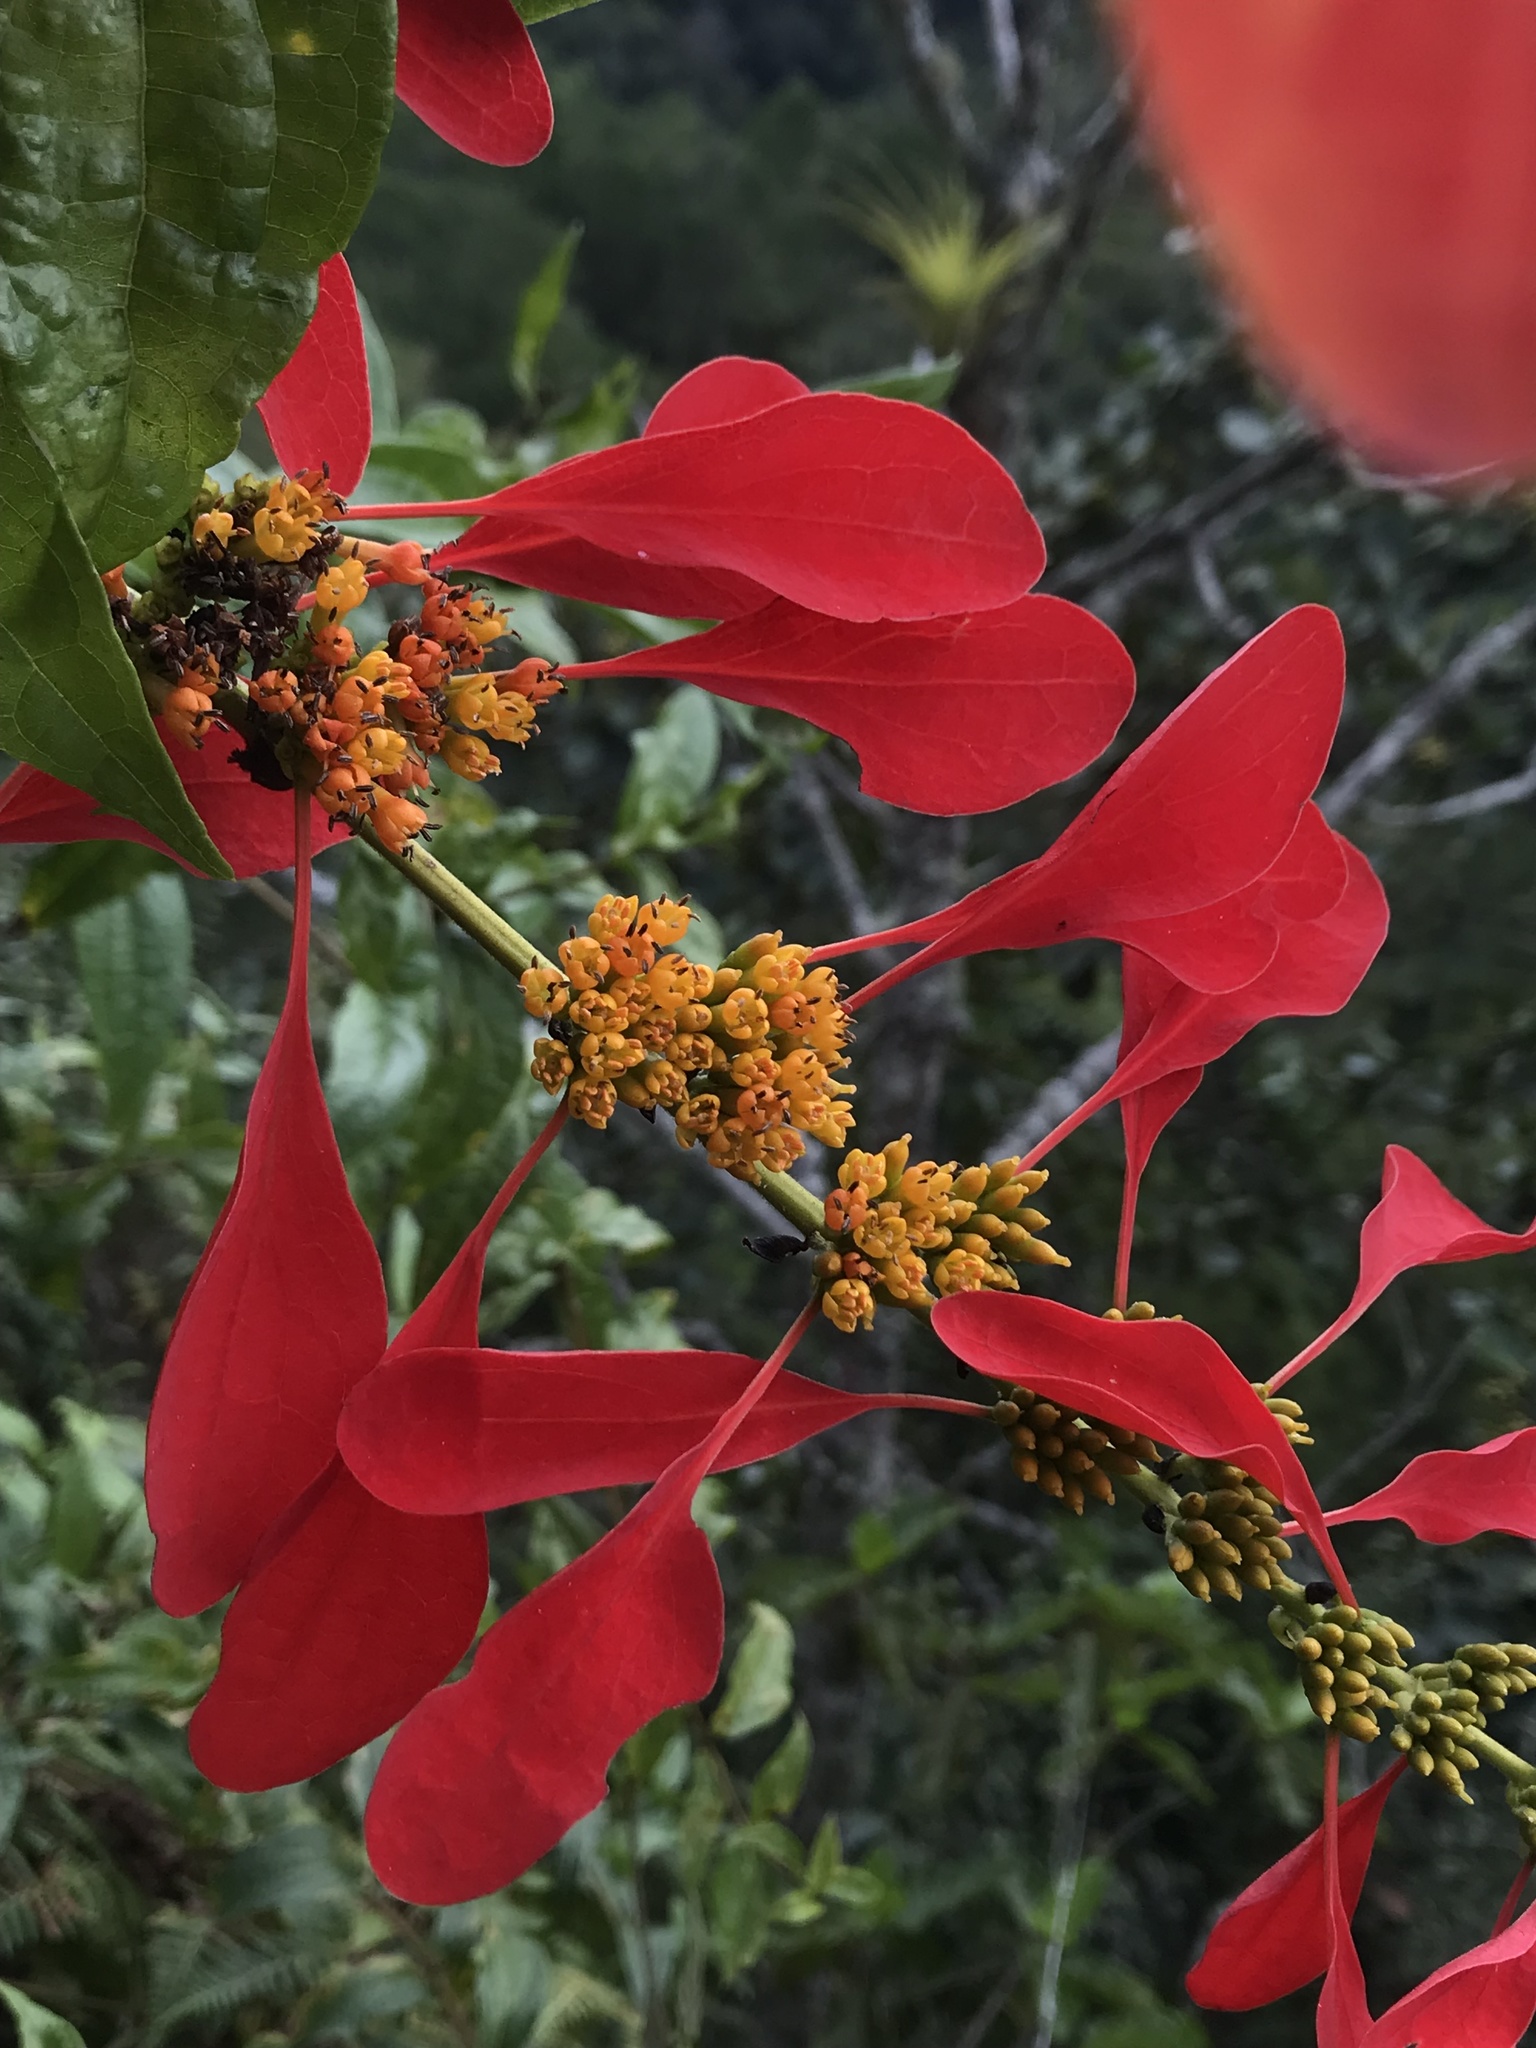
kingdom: Plantae
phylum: Tracheophyta
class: Magnoliopsida
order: Gentianales
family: Rubiaceae
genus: Warszewiczia
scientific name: Warszewiczia coccinea
